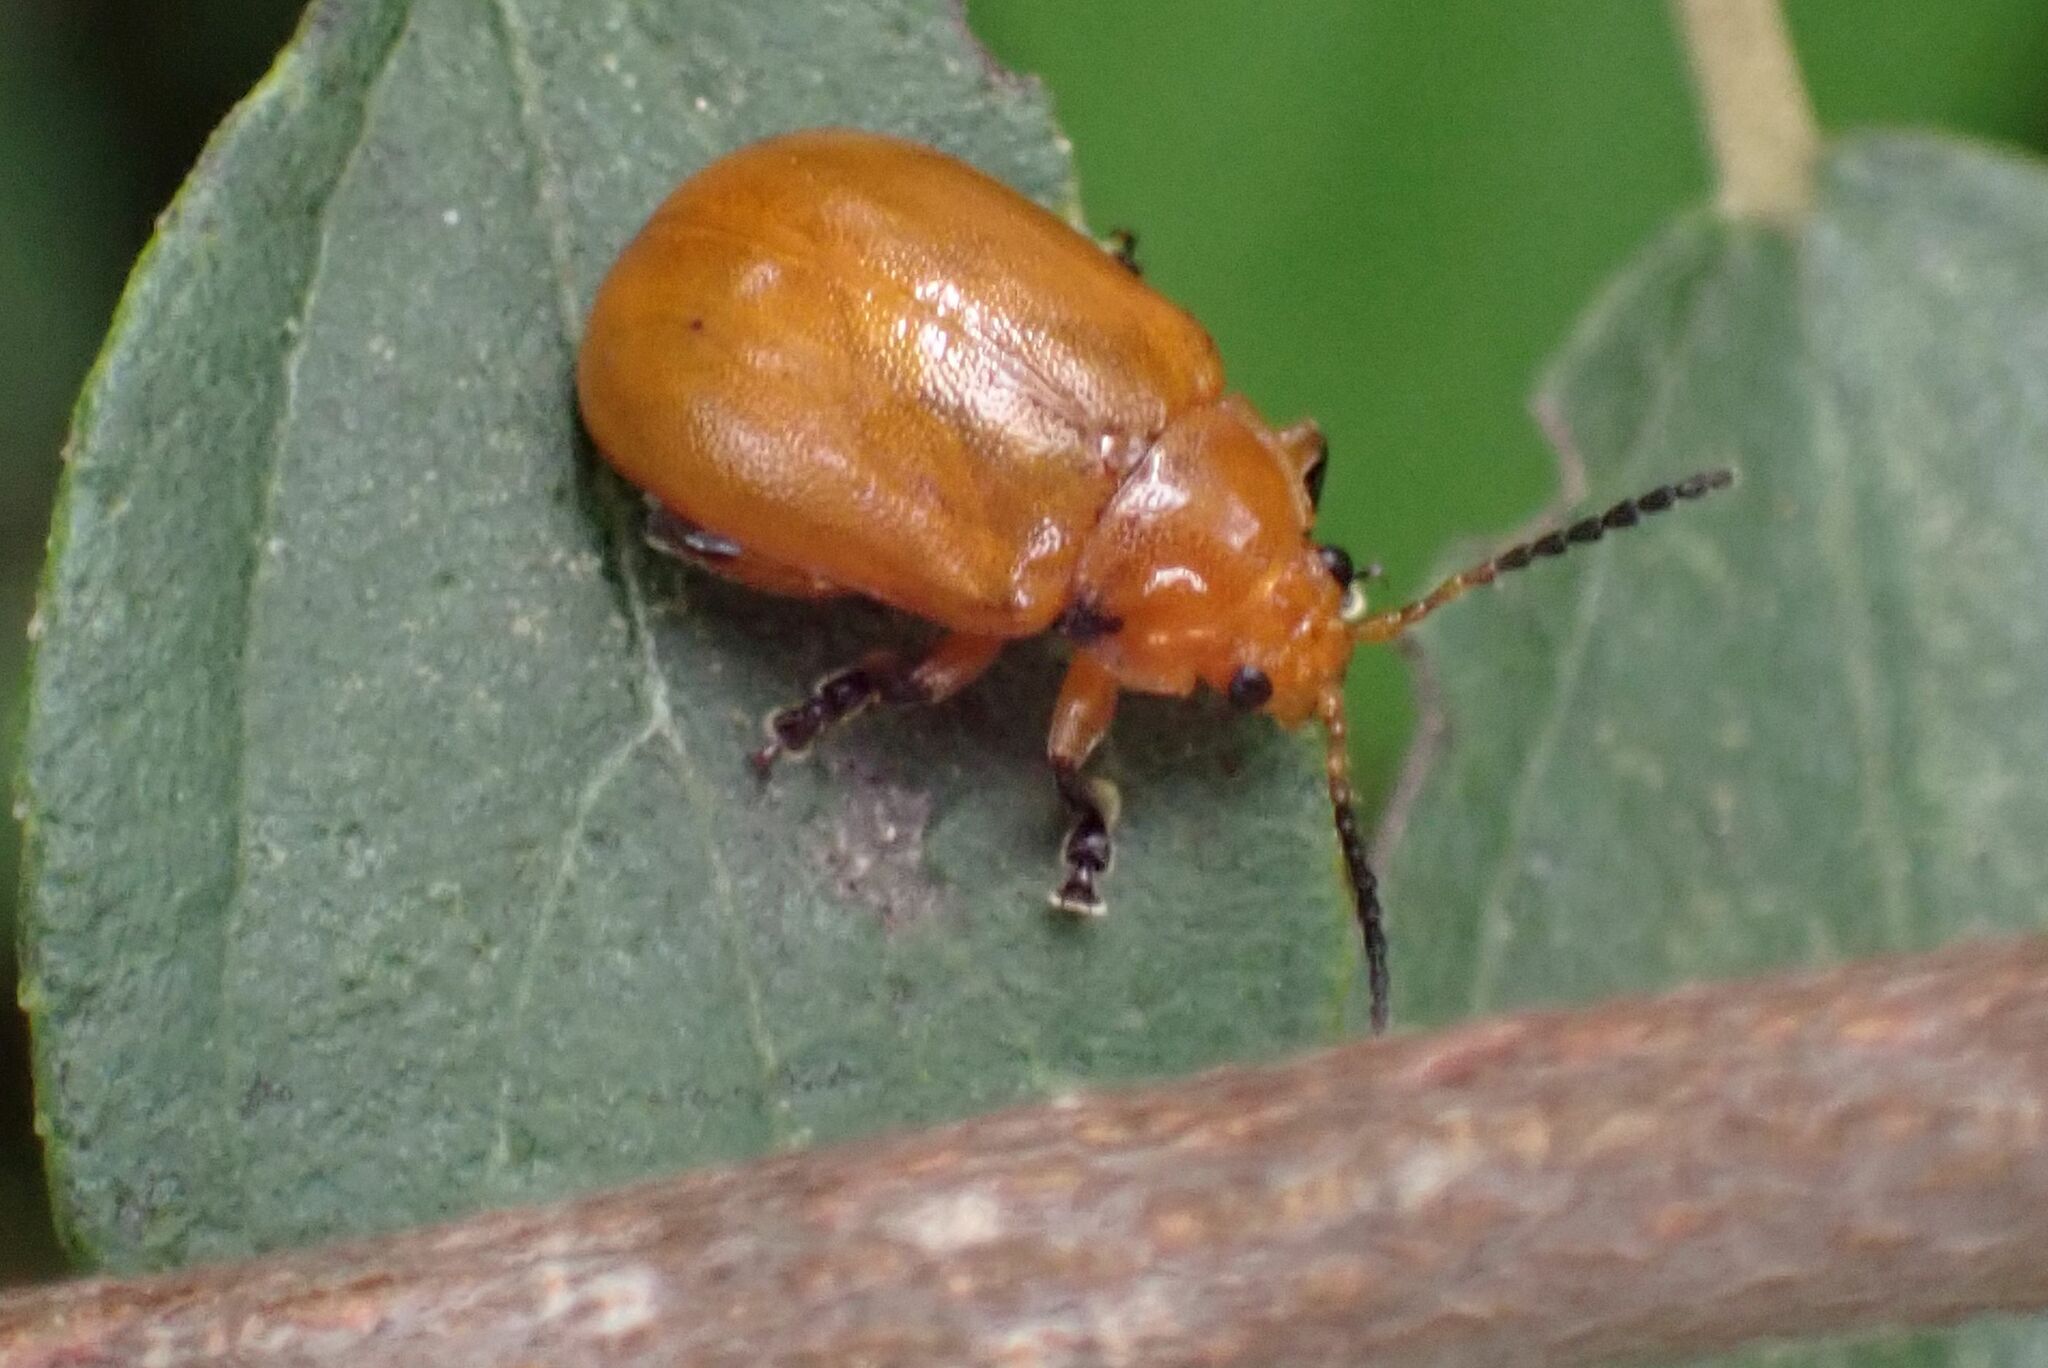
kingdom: Animalia
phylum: Arthropoda
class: Insecta
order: Coleoptera
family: Chrysomelidae
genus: Diamphidia
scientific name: Diamphidia
